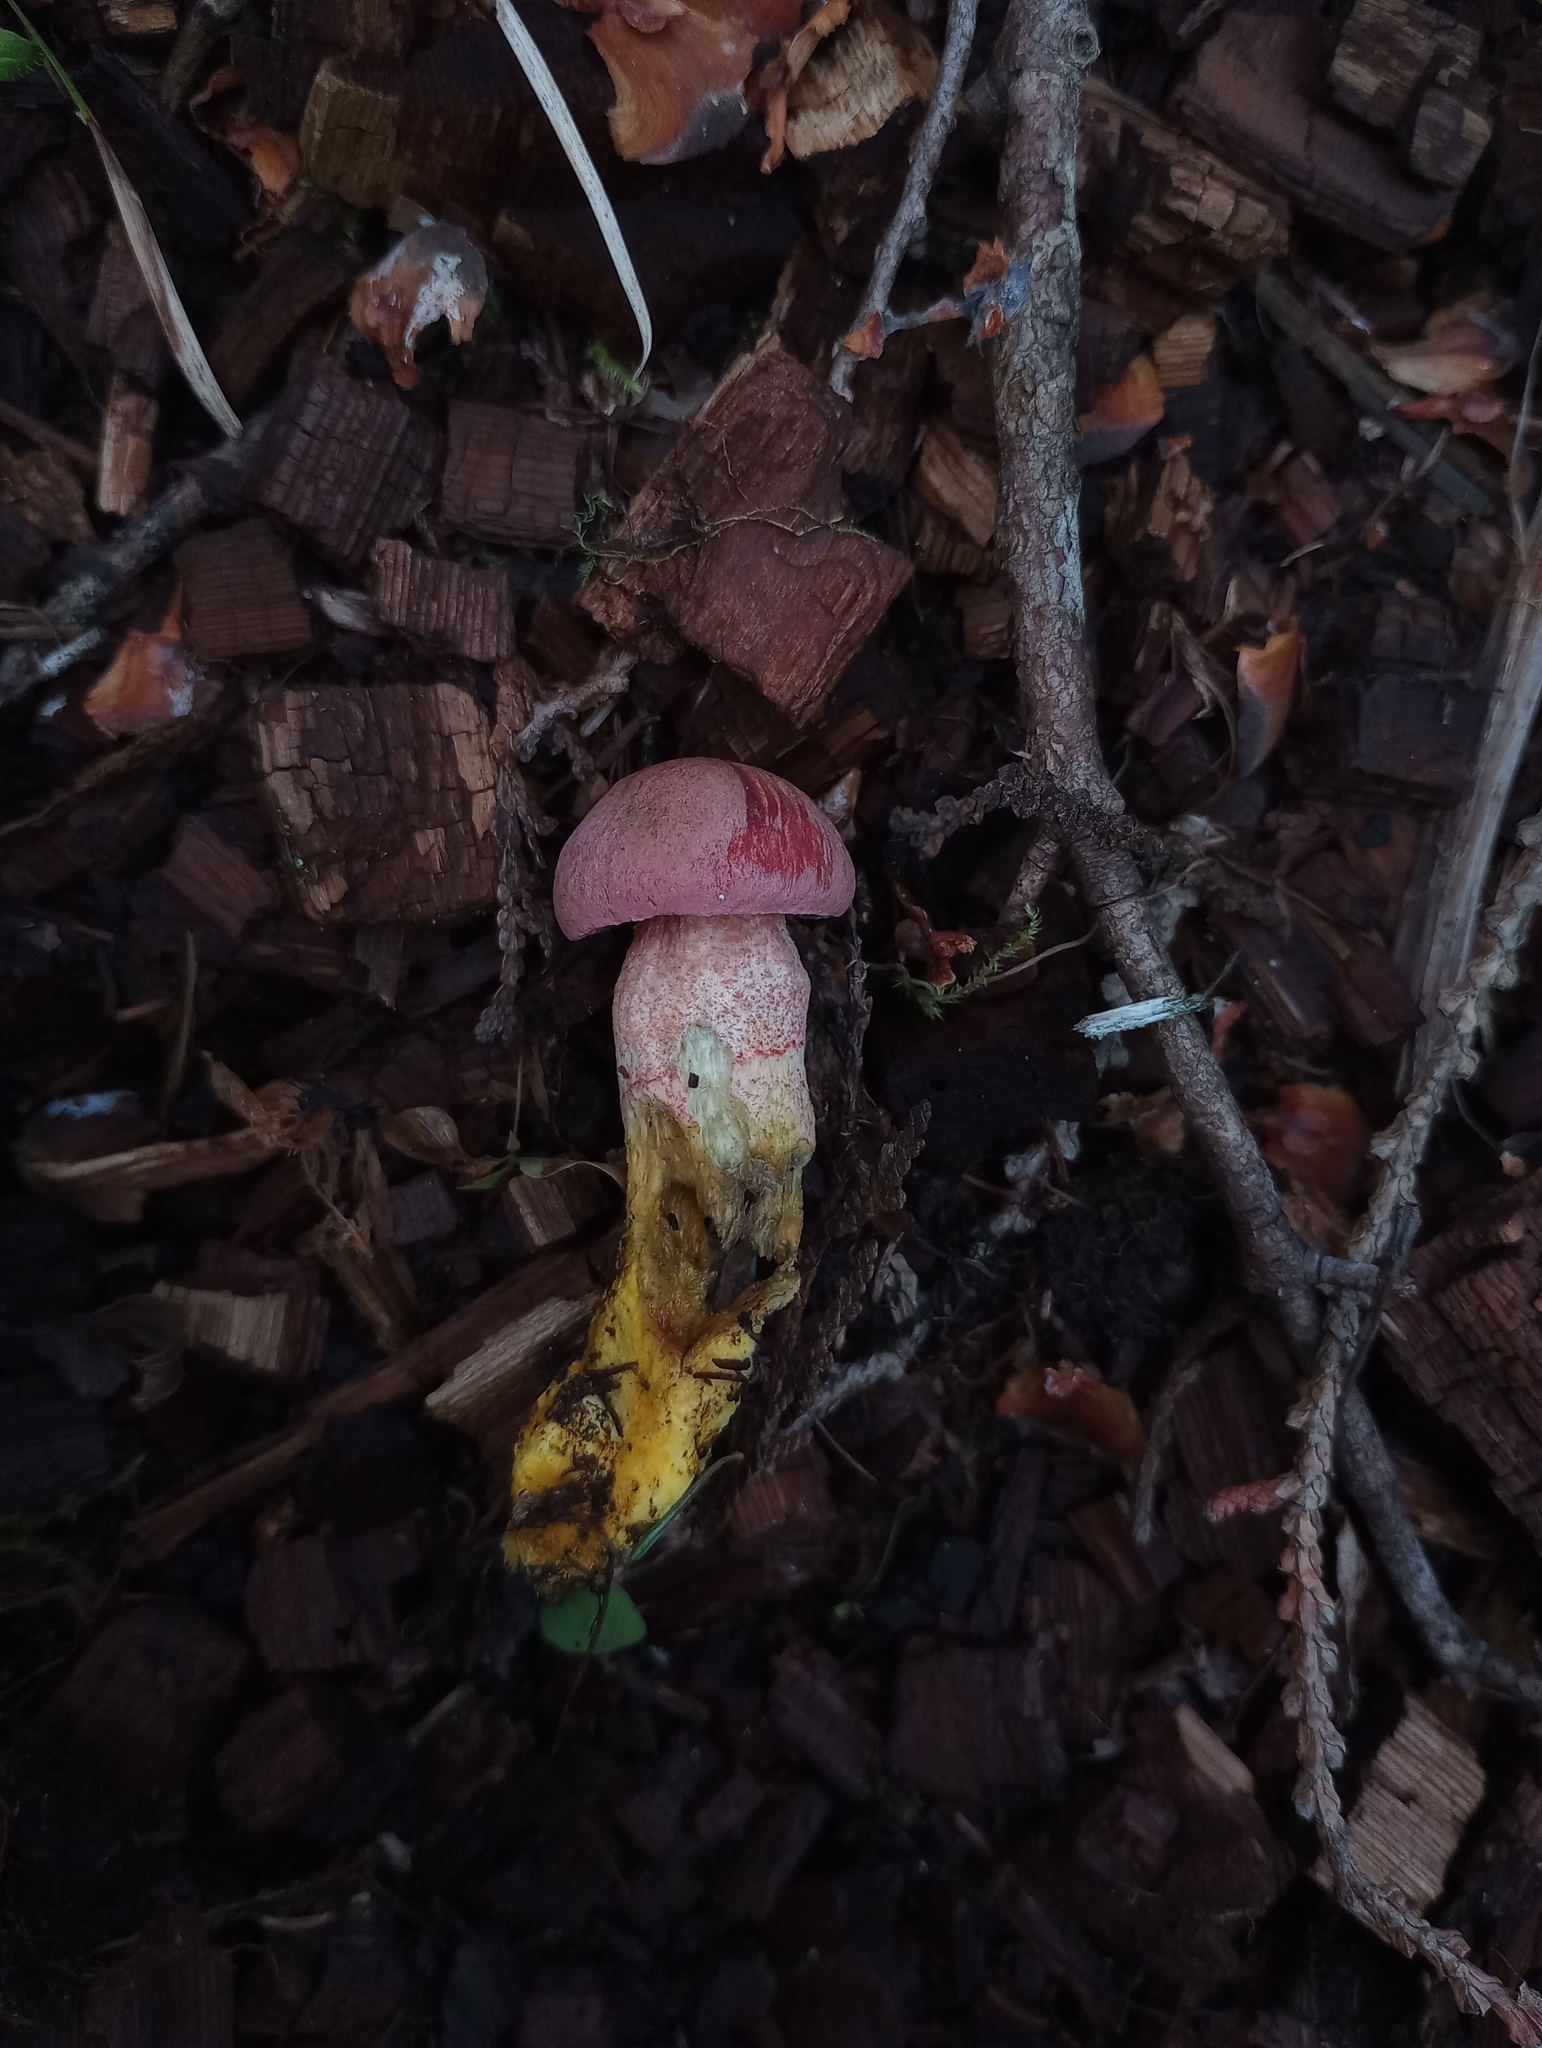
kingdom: Fungi
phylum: Basidiomycota
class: Agaricomycetes
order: Boletales
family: Boletaceae
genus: Harrya
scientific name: Harrya chromipes
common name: Chrome-footed bolete
